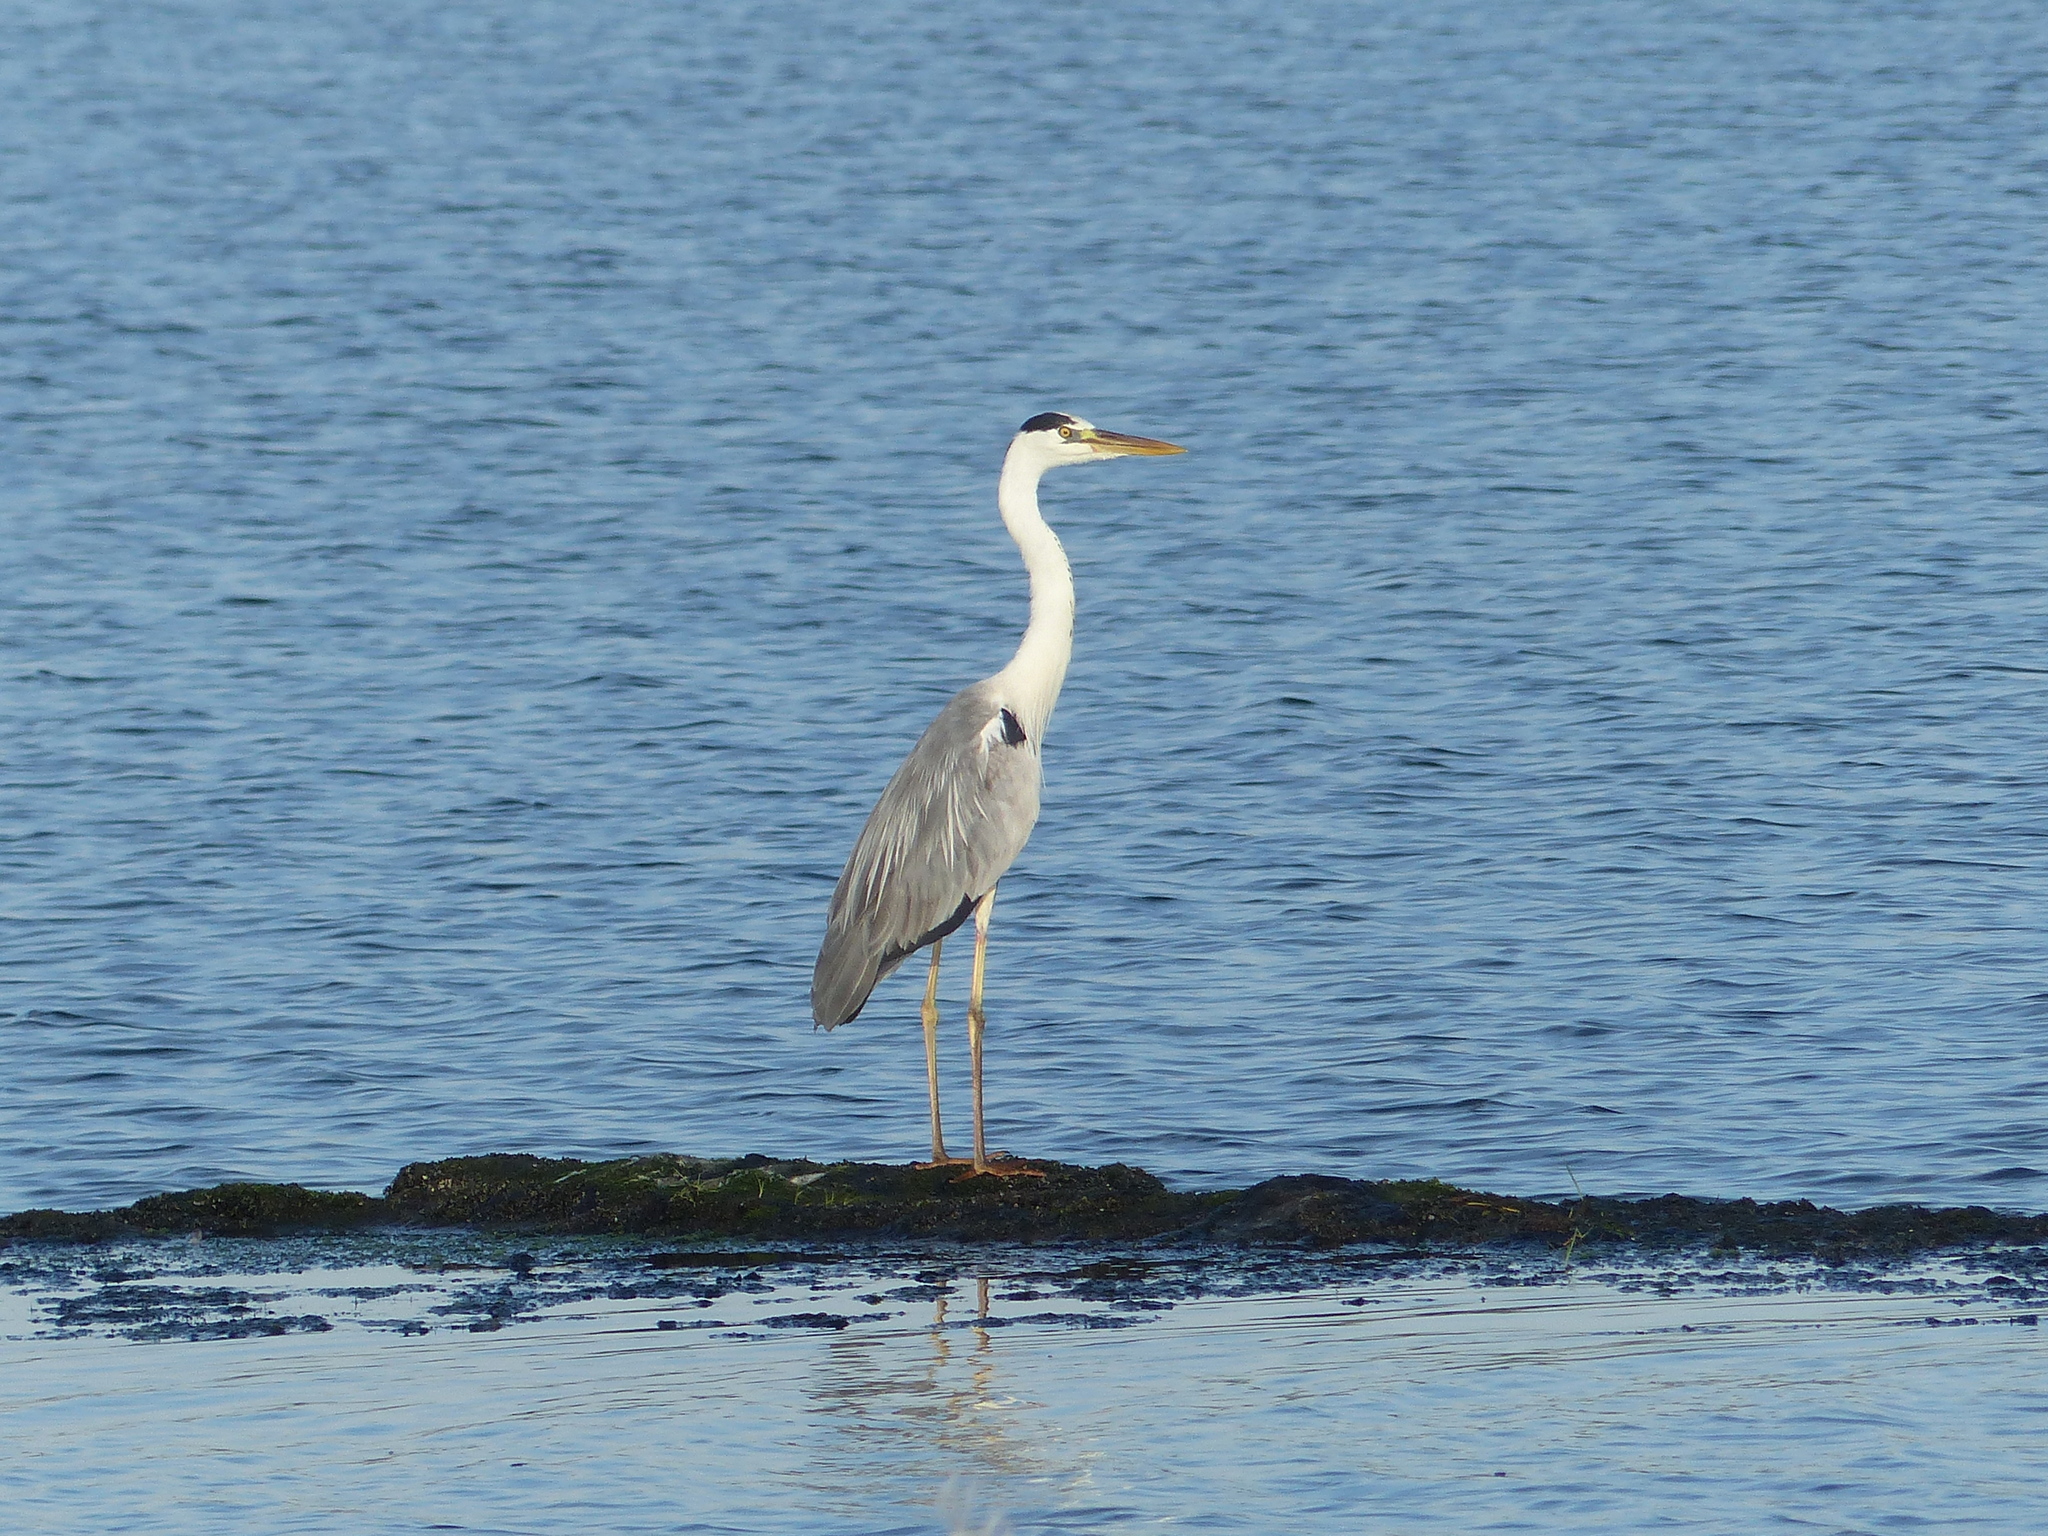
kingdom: Animalia
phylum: Chordata
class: Aves
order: Pelecaniformes
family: Ardeidae
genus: Ardea
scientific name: Ardea cinerea
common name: Grey heron
